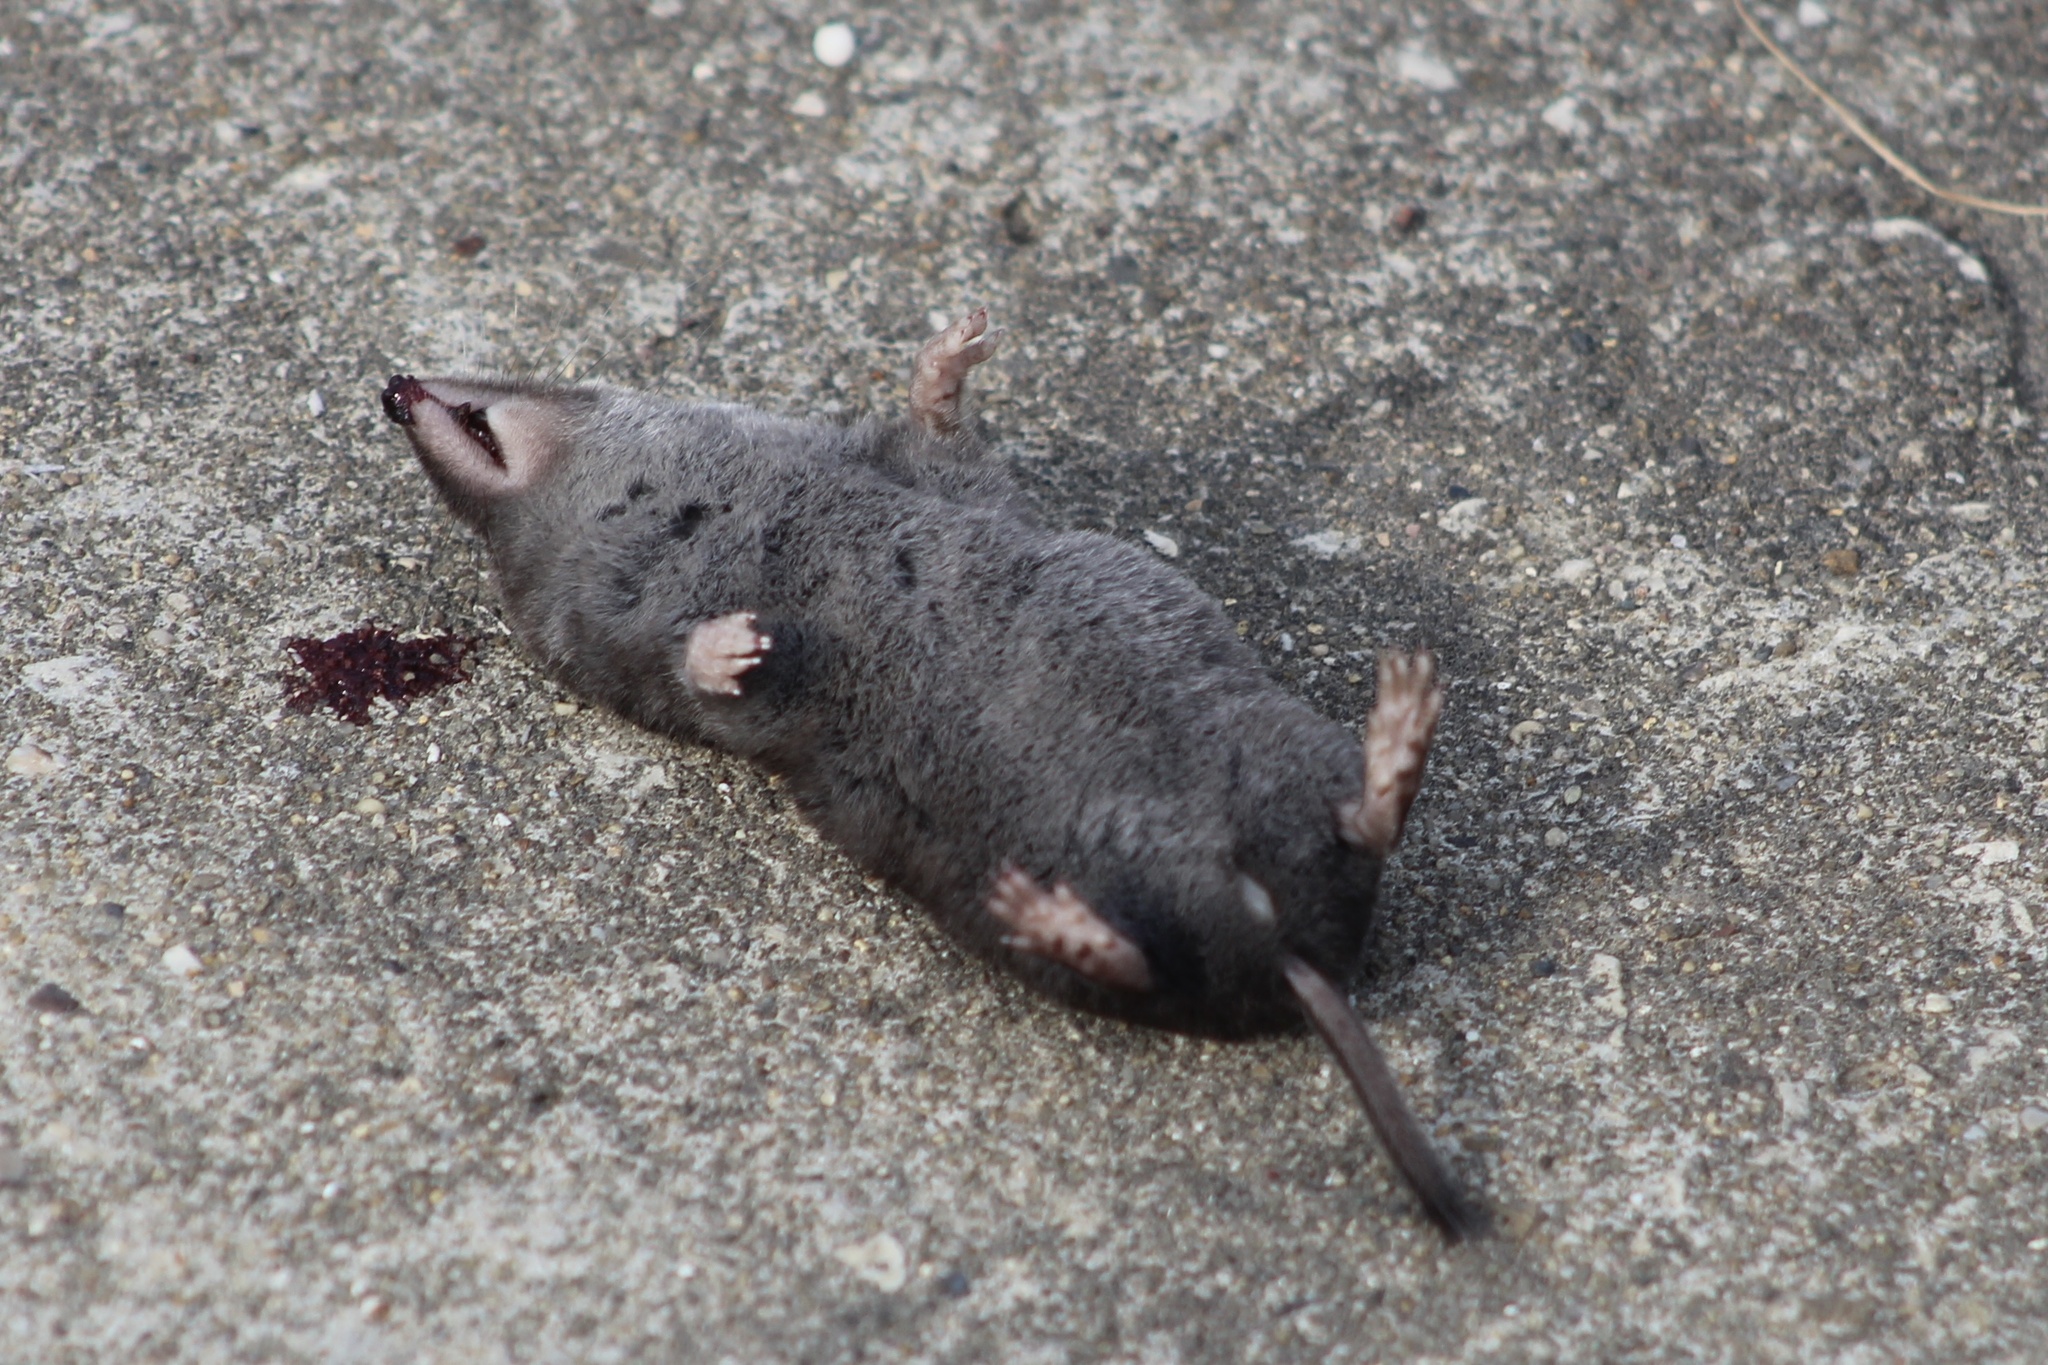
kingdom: Animalia
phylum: Chordata
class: Mammalia
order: Soricomorpha
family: Soricidae
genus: Blarina
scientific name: Blarina brevicauda
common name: Northern short-tailed shrew
